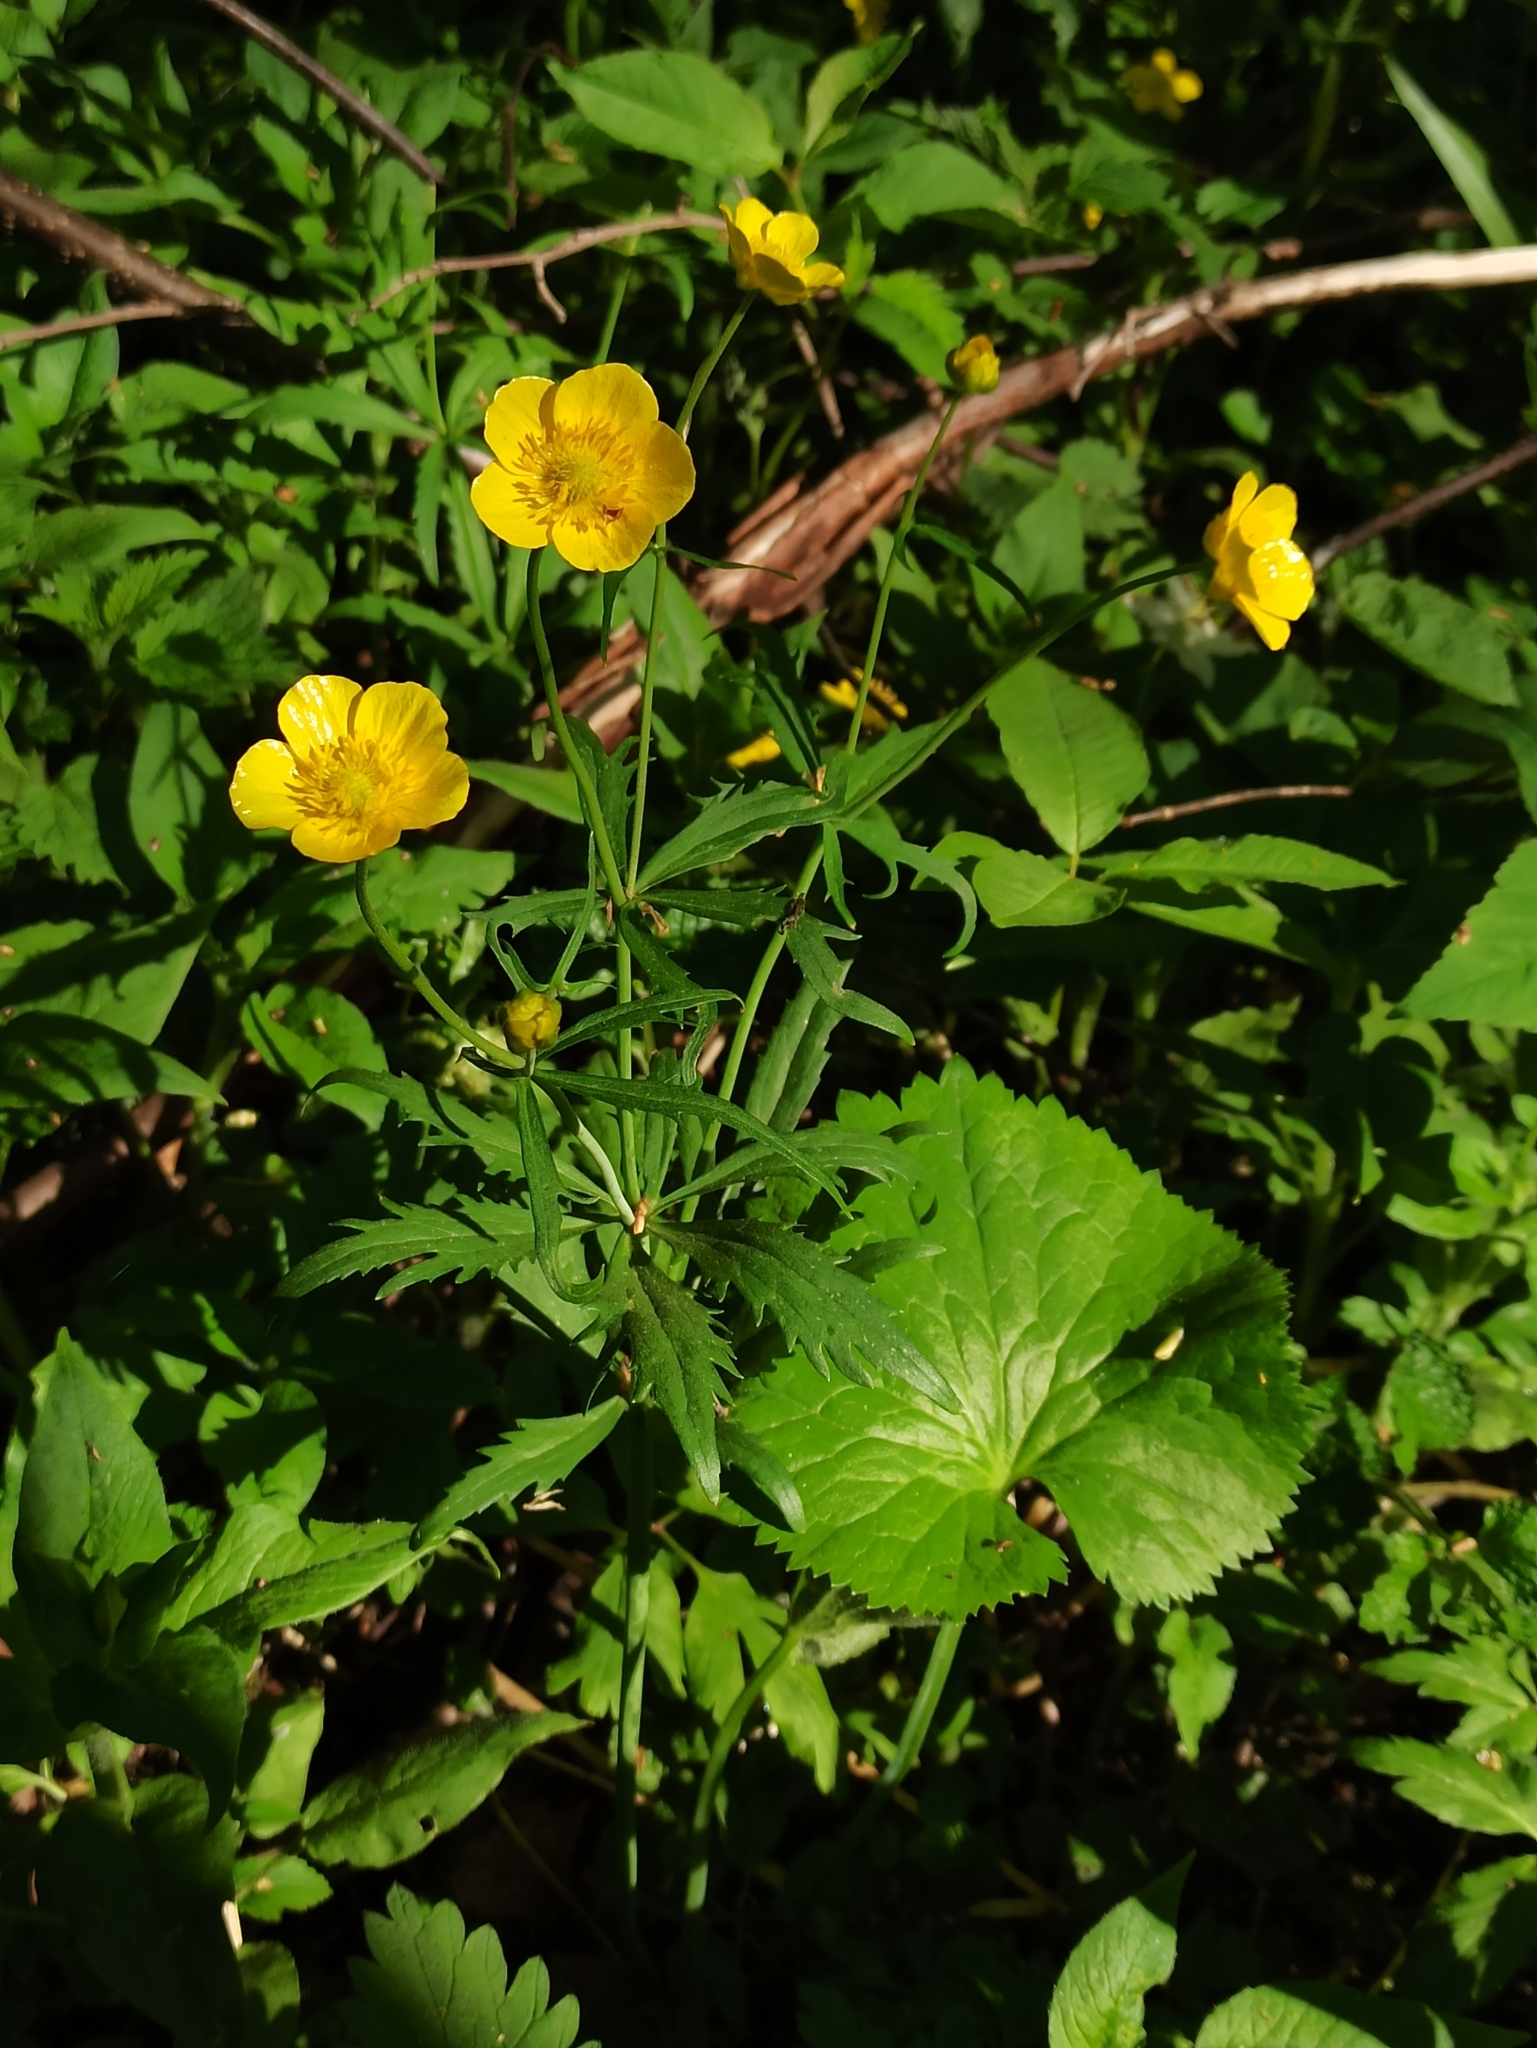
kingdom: Plantae
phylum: Tracheophyta
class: Magnoliopsida
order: Ranunculales
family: Ranunculaceae
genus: Ranunculus
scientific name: Ranunculus cassubicus
